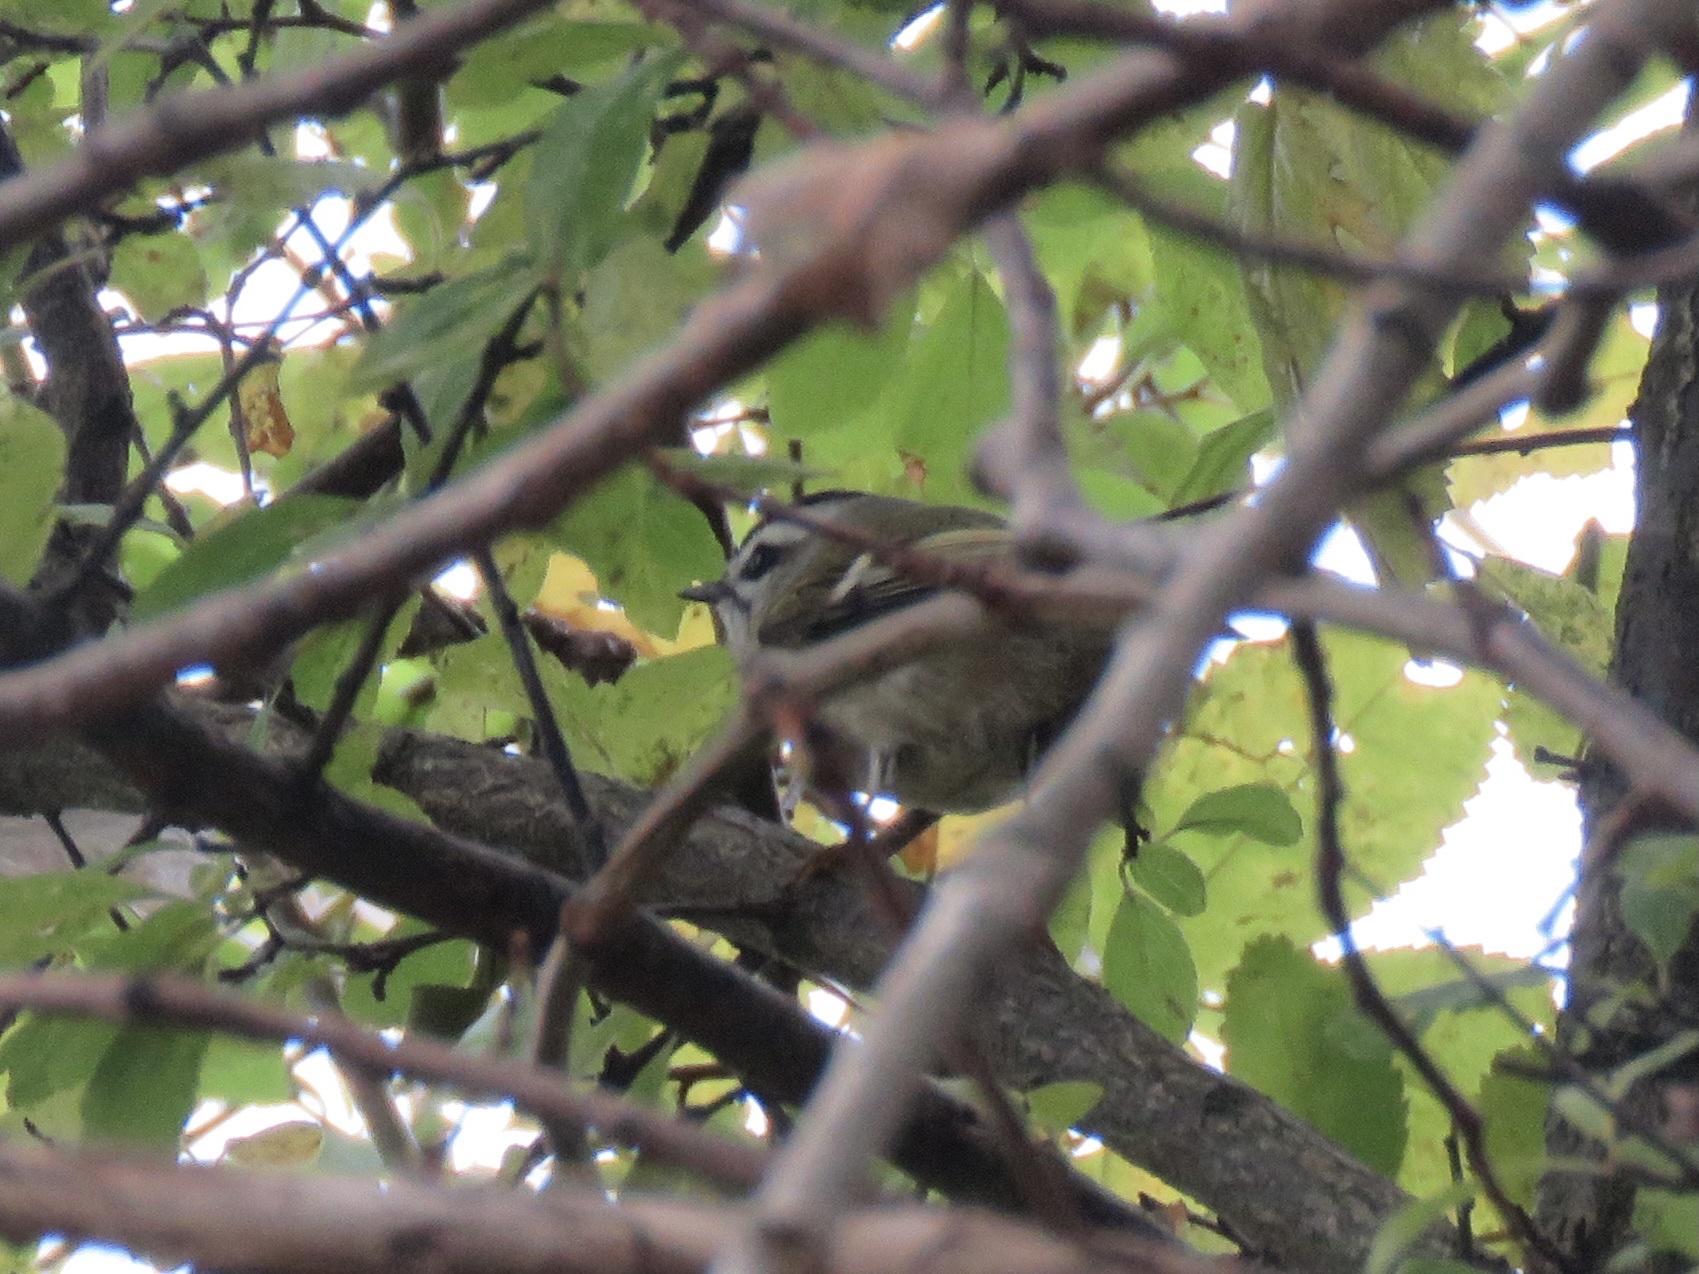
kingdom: Animalia
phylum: Chordata
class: Aves
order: Passeriformes
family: Regulidae
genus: Regulus
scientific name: Regulus satrapa
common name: Golden-crowned kinglet
